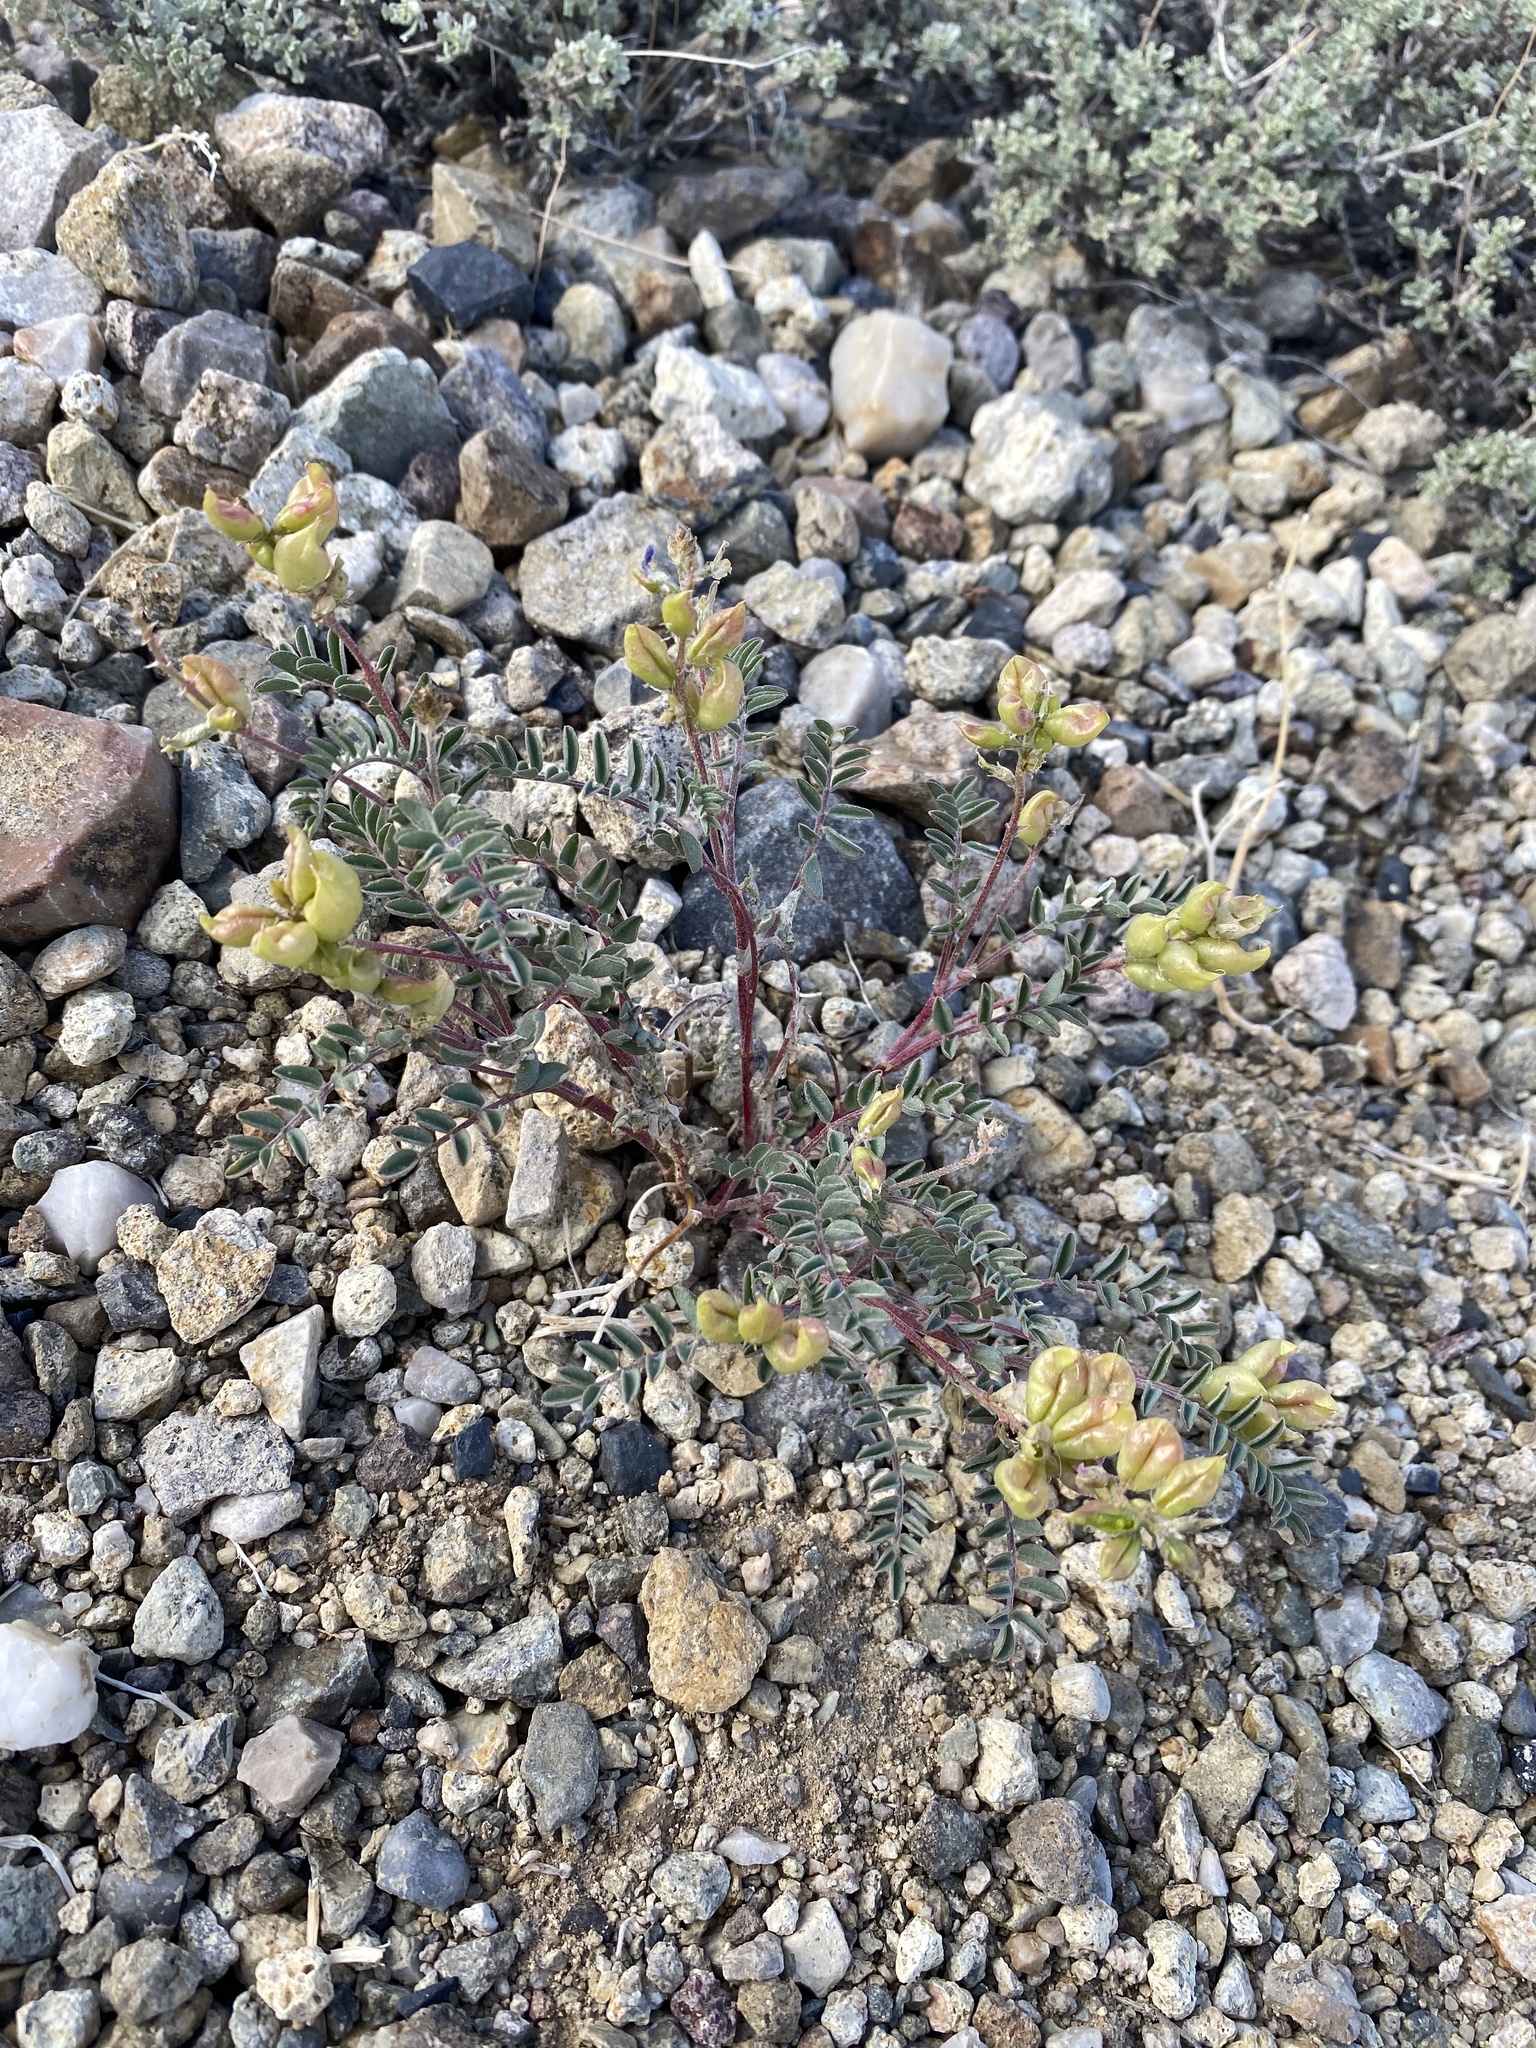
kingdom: Plantae
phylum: Tracheophyta
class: Magnoliopsida
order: Fabales
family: Fabaceae
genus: Astragalus
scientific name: Astragalus lentiginosus
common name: Freckled milkvetch
